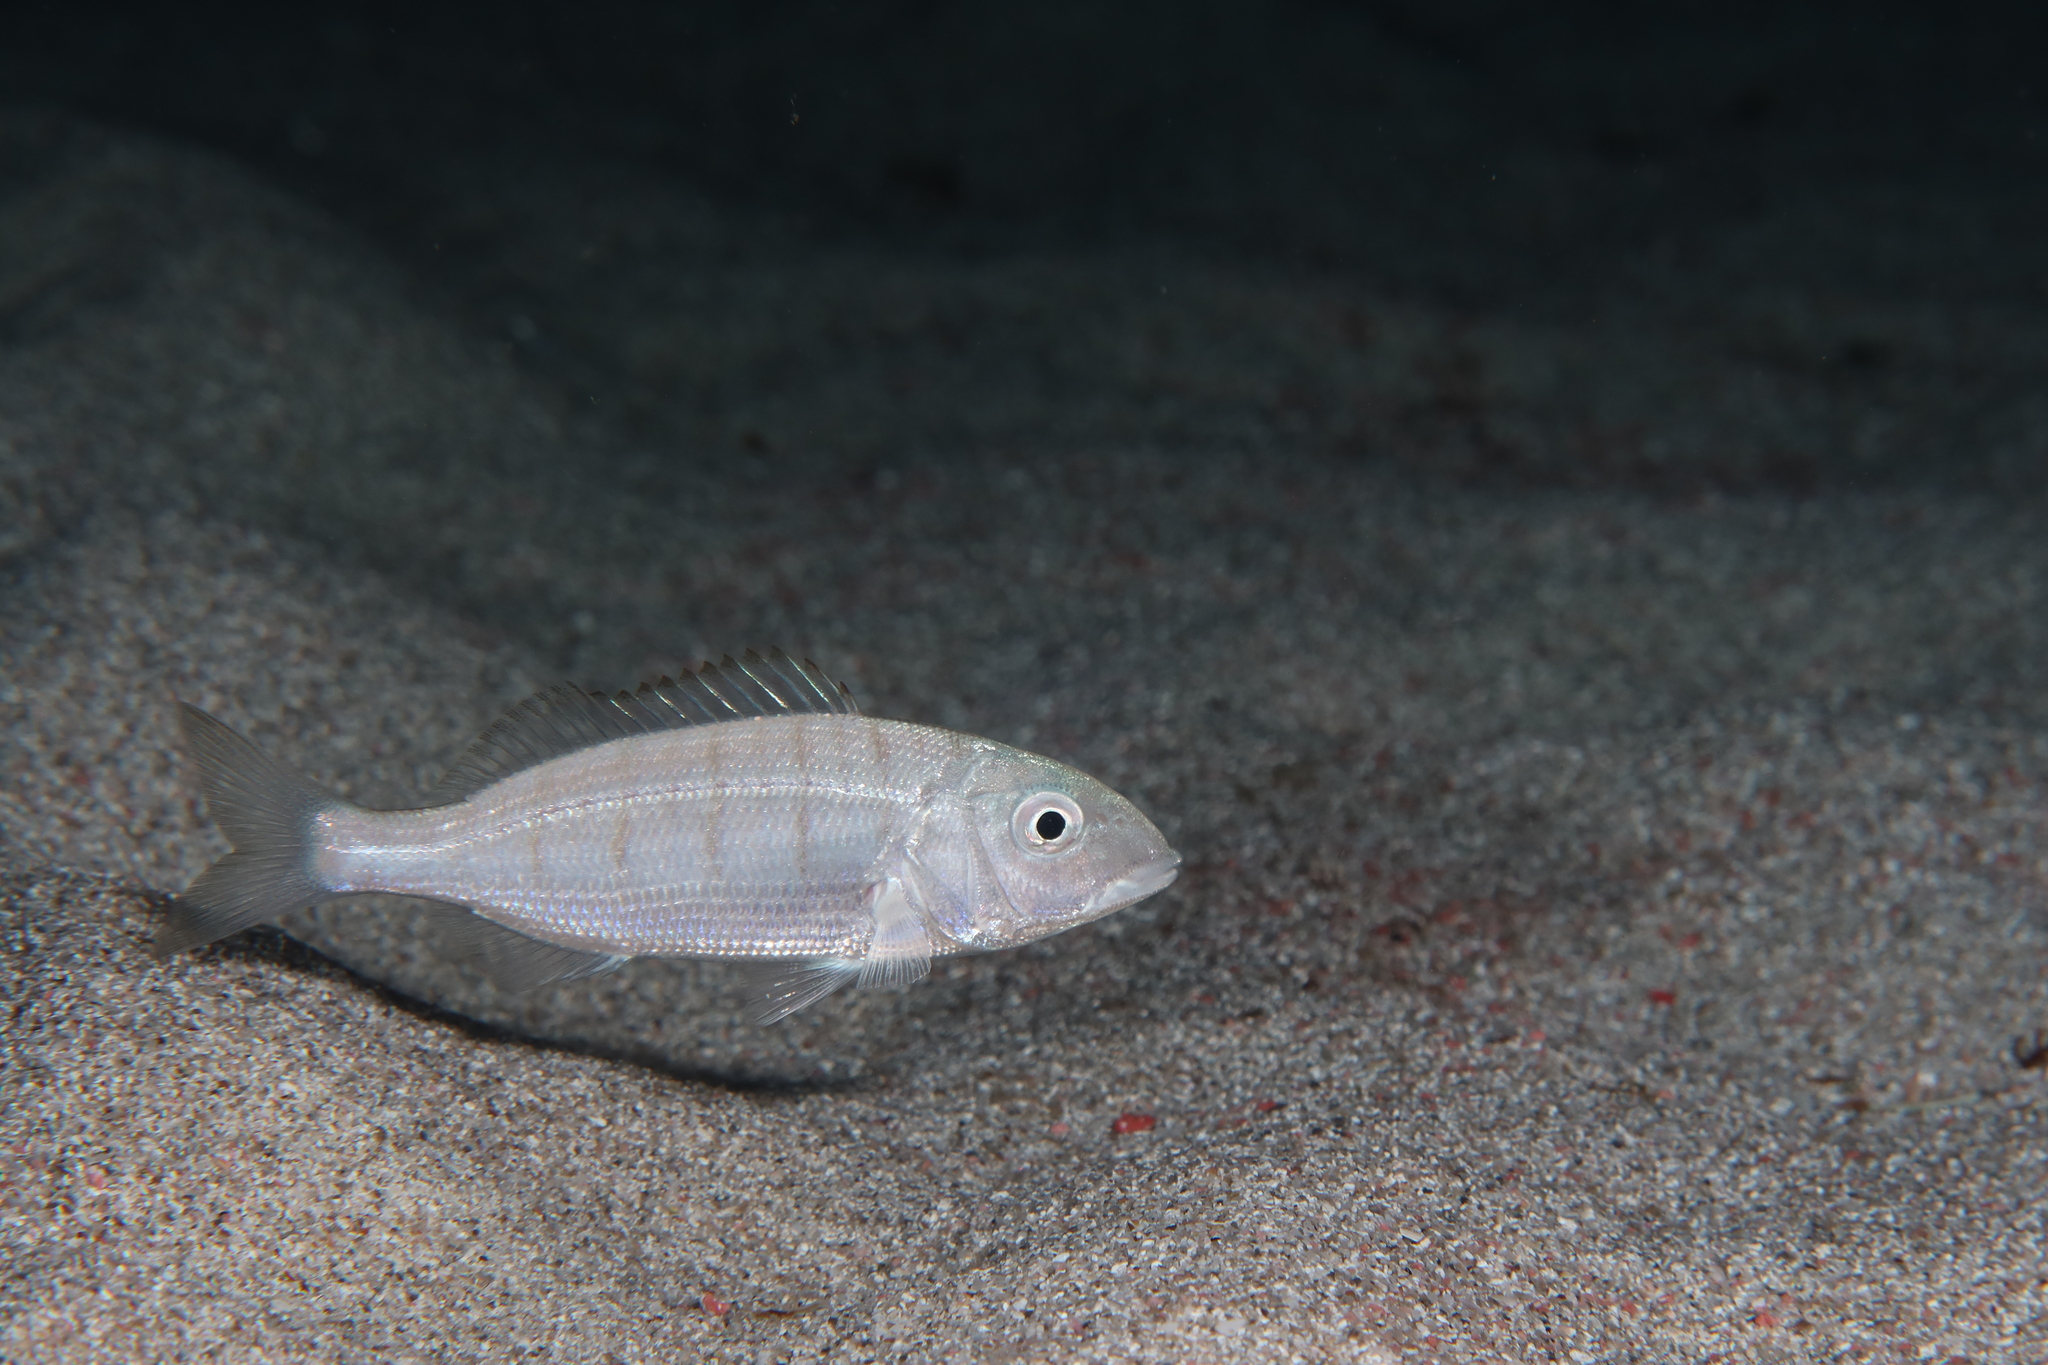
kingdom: Animalia
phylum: Chordata
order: Perciformes
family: Sparidae
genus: Lithognathus
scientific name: Lithognathus mormyrus
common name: Sand steenbras
